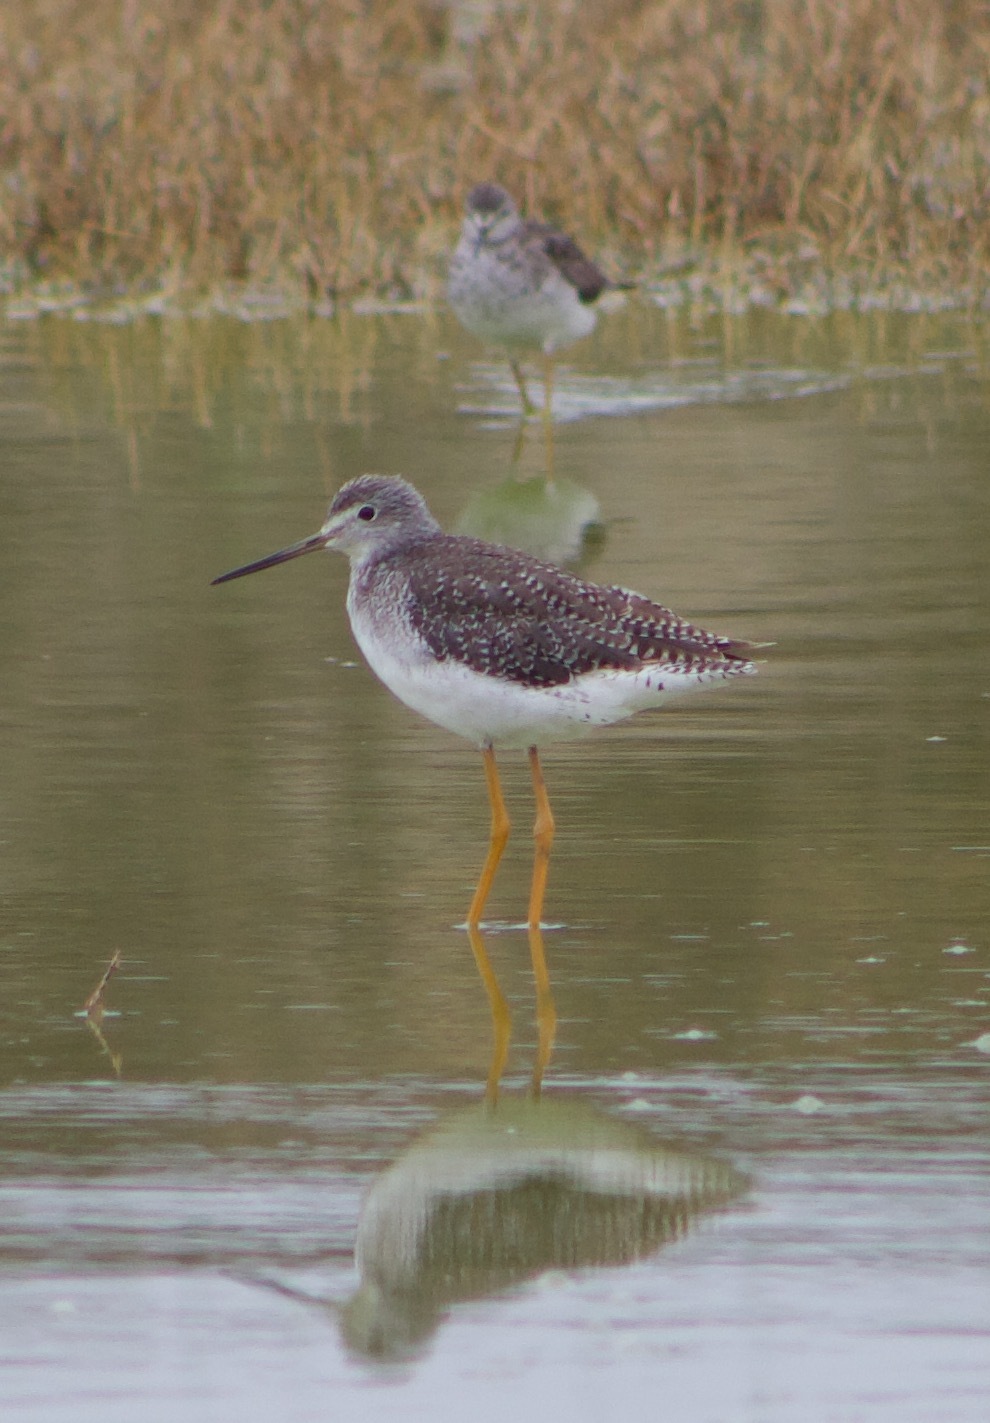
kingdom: Animalia
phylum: Chordata
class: Aves
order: Charadriiformes
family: Scolopacidae
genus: Tringa
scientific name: Tringa melanoleuca
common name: Greater yellowlegs
